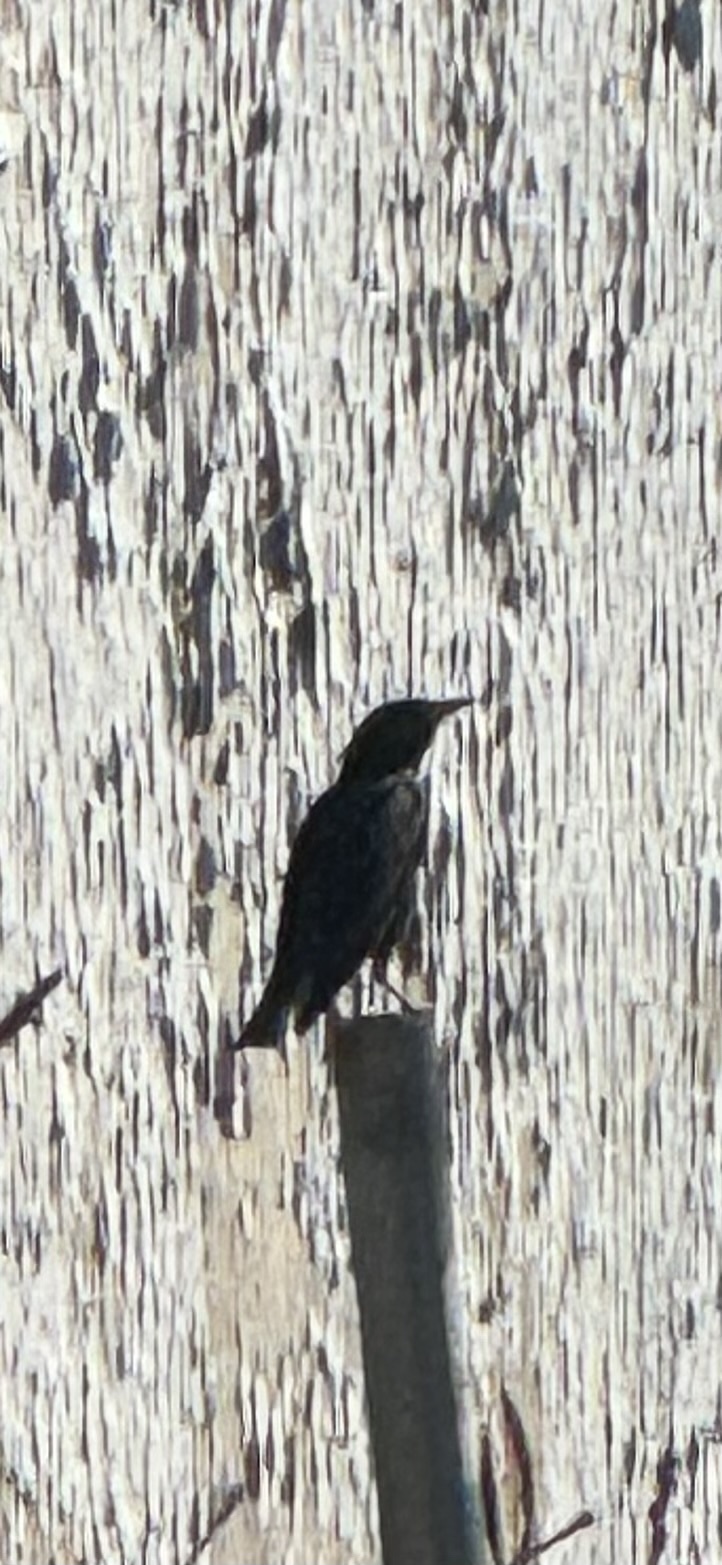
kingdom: Animalia
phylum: Chordata
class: Aves
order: Passeriformes
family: Sturnidae
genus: Sturnus
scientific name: Sturnus vulgaris
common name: Common starling
